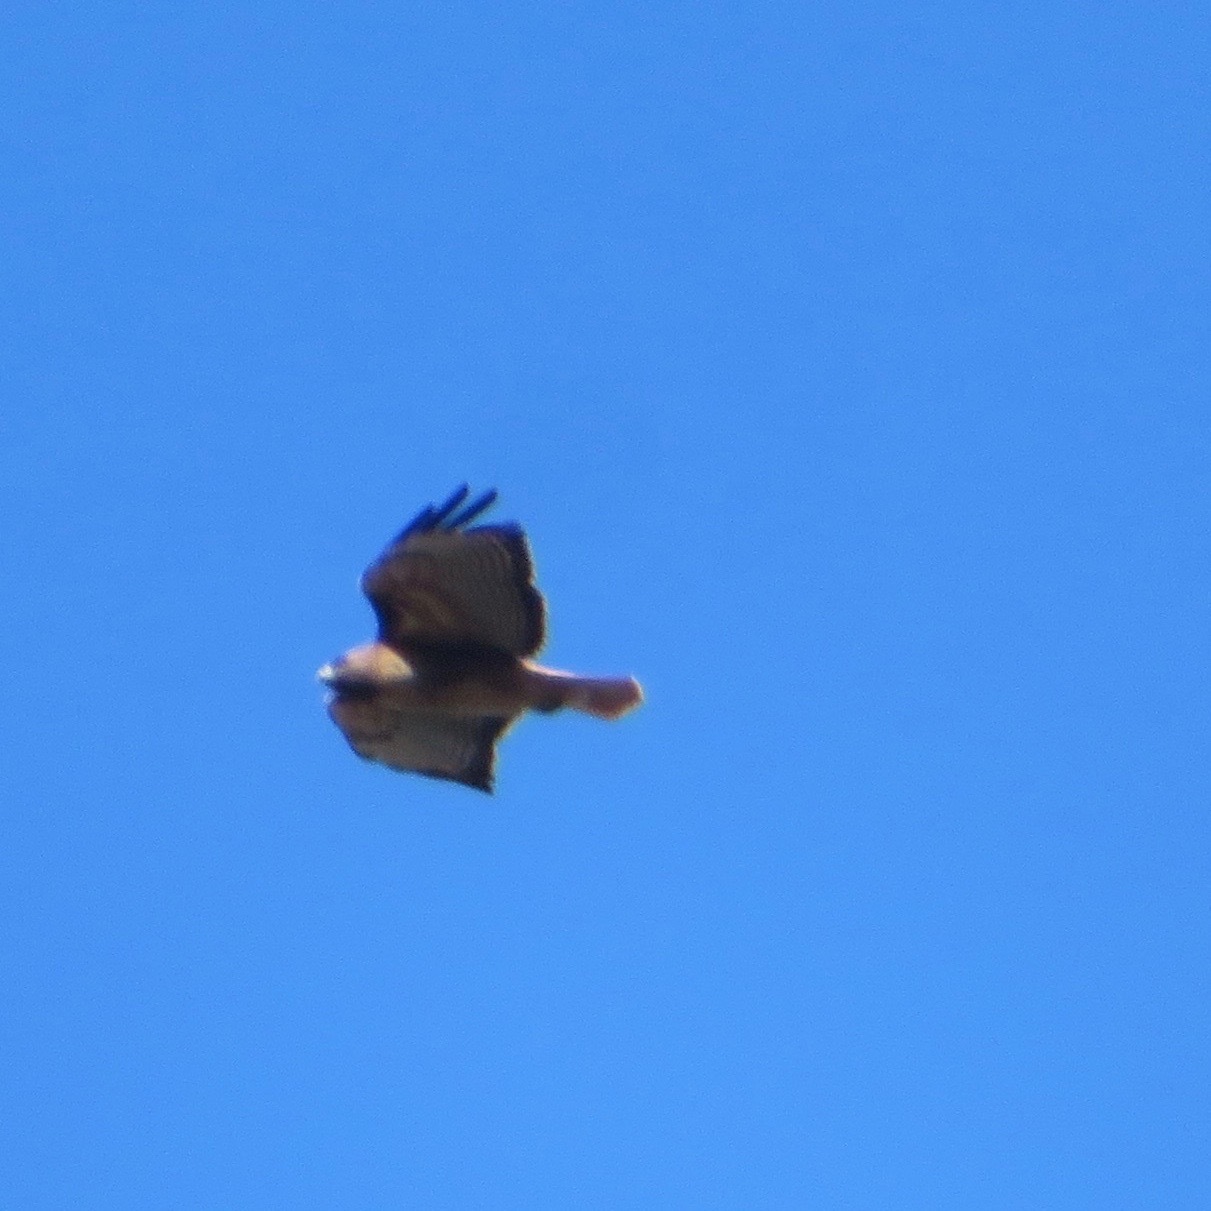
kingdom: Animalia
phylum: Chordata
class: Aves
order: Accipitriformes
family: Accipitridae
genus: Buteo
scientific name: Buteo jamaicensis
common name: Red-tailed hawk
